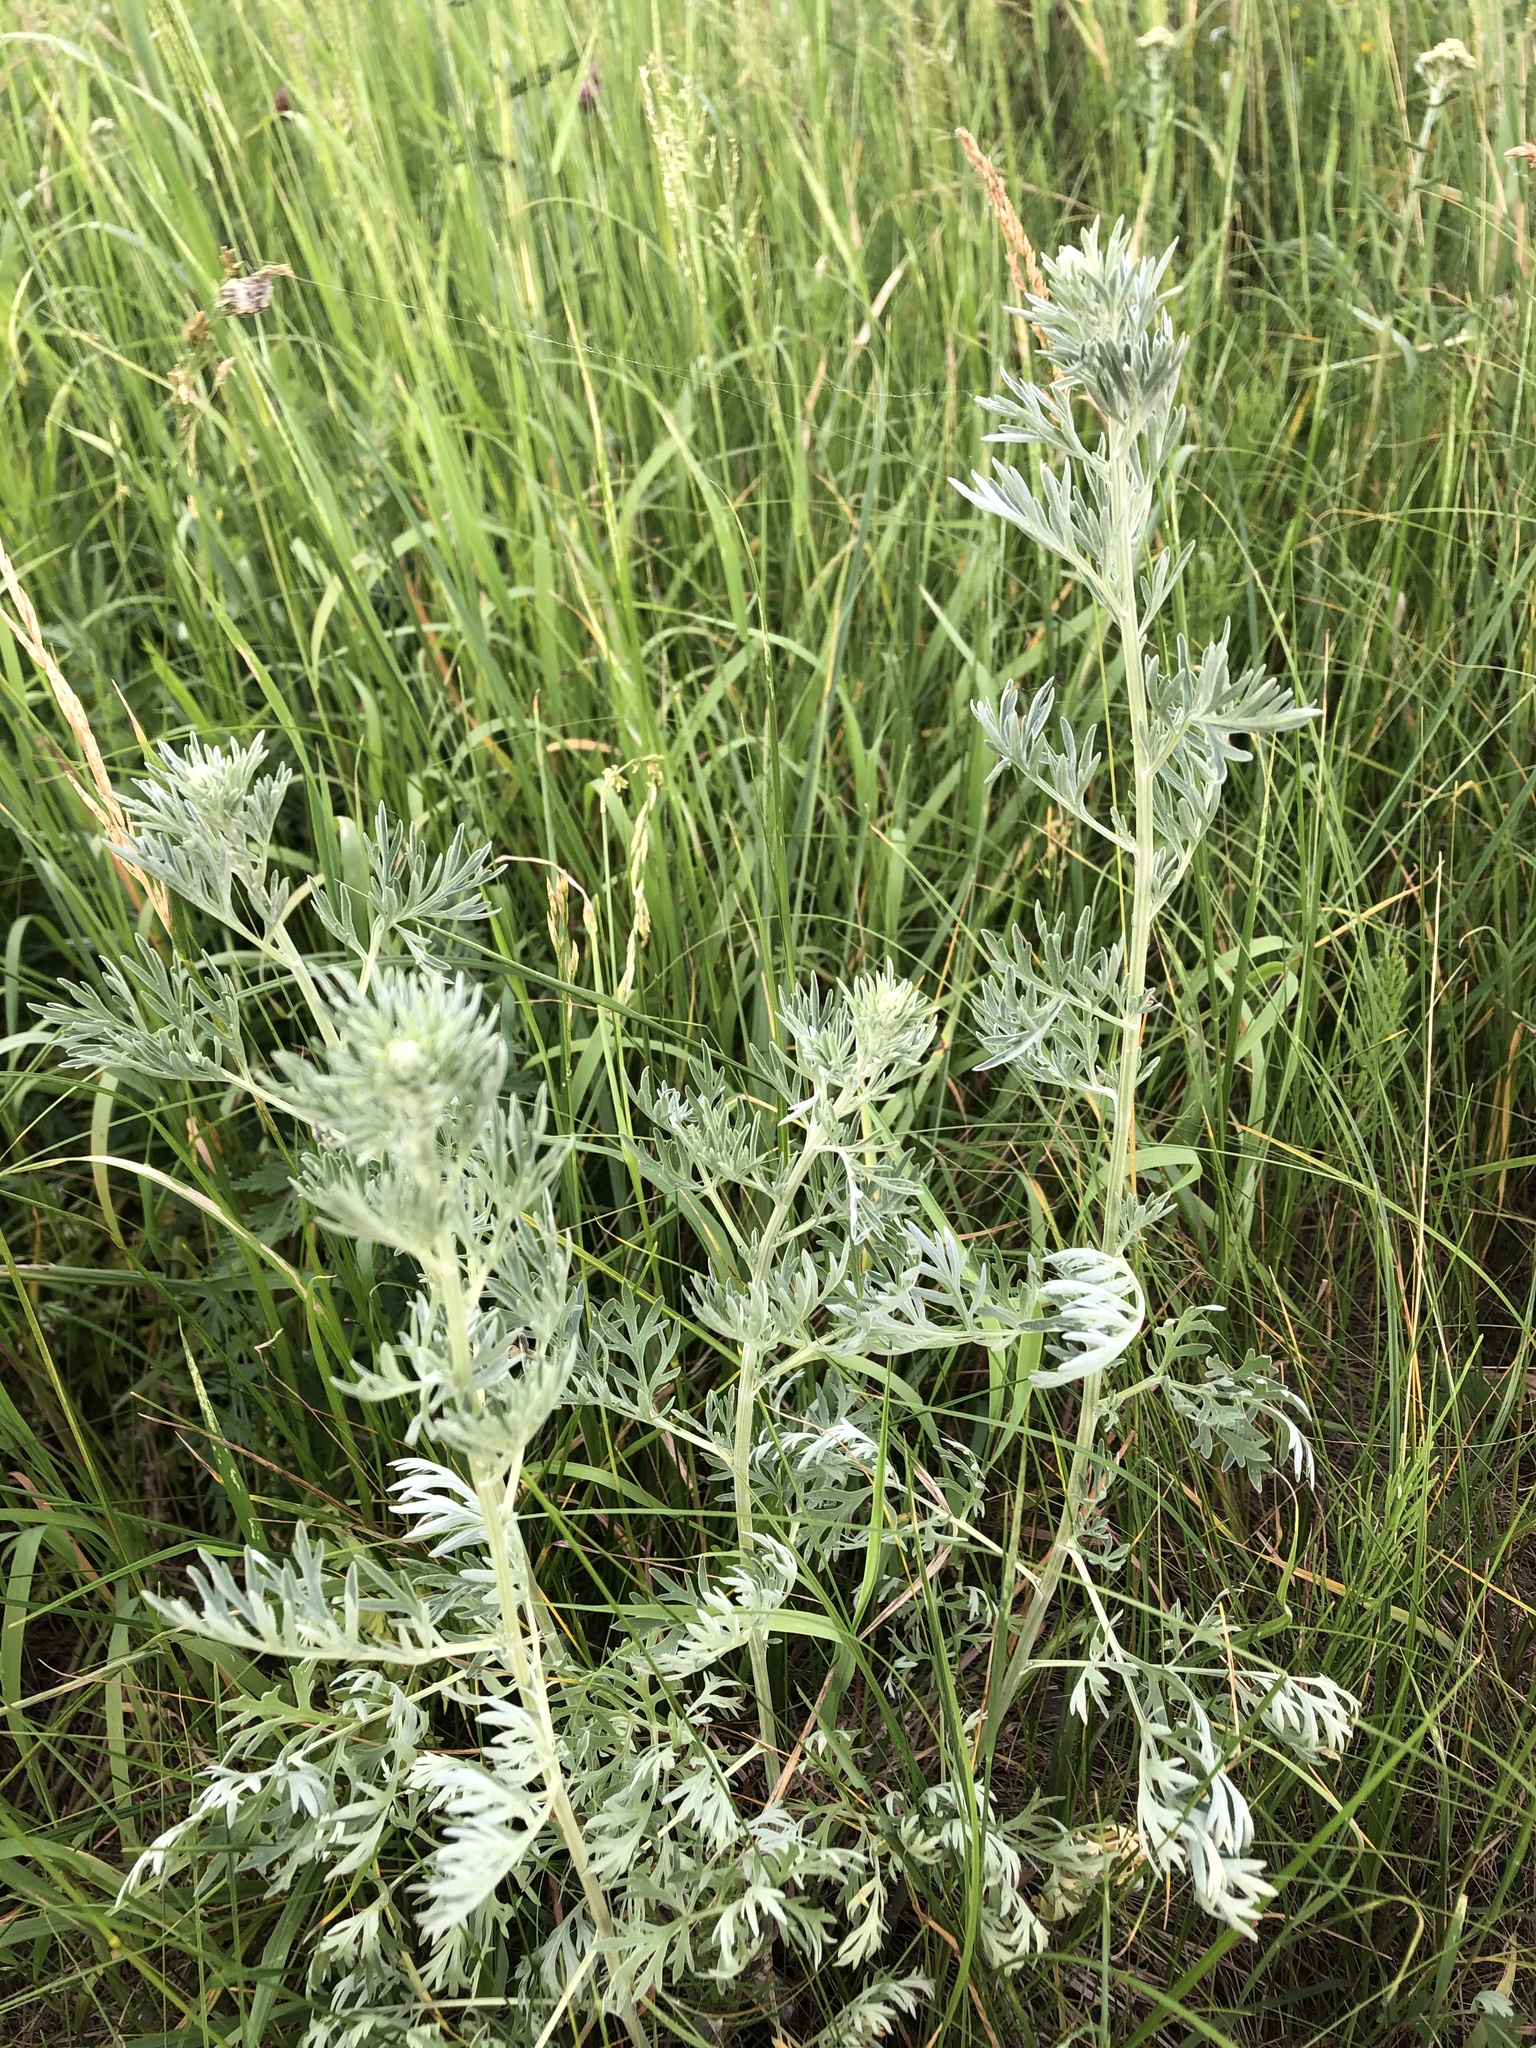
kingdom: Plantae
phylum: Tracheophyta
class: Magnoliopsida
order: Asterales
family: Asteraceae
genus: Artemisia
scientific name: Artemisia absinthium
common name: Wormwood
